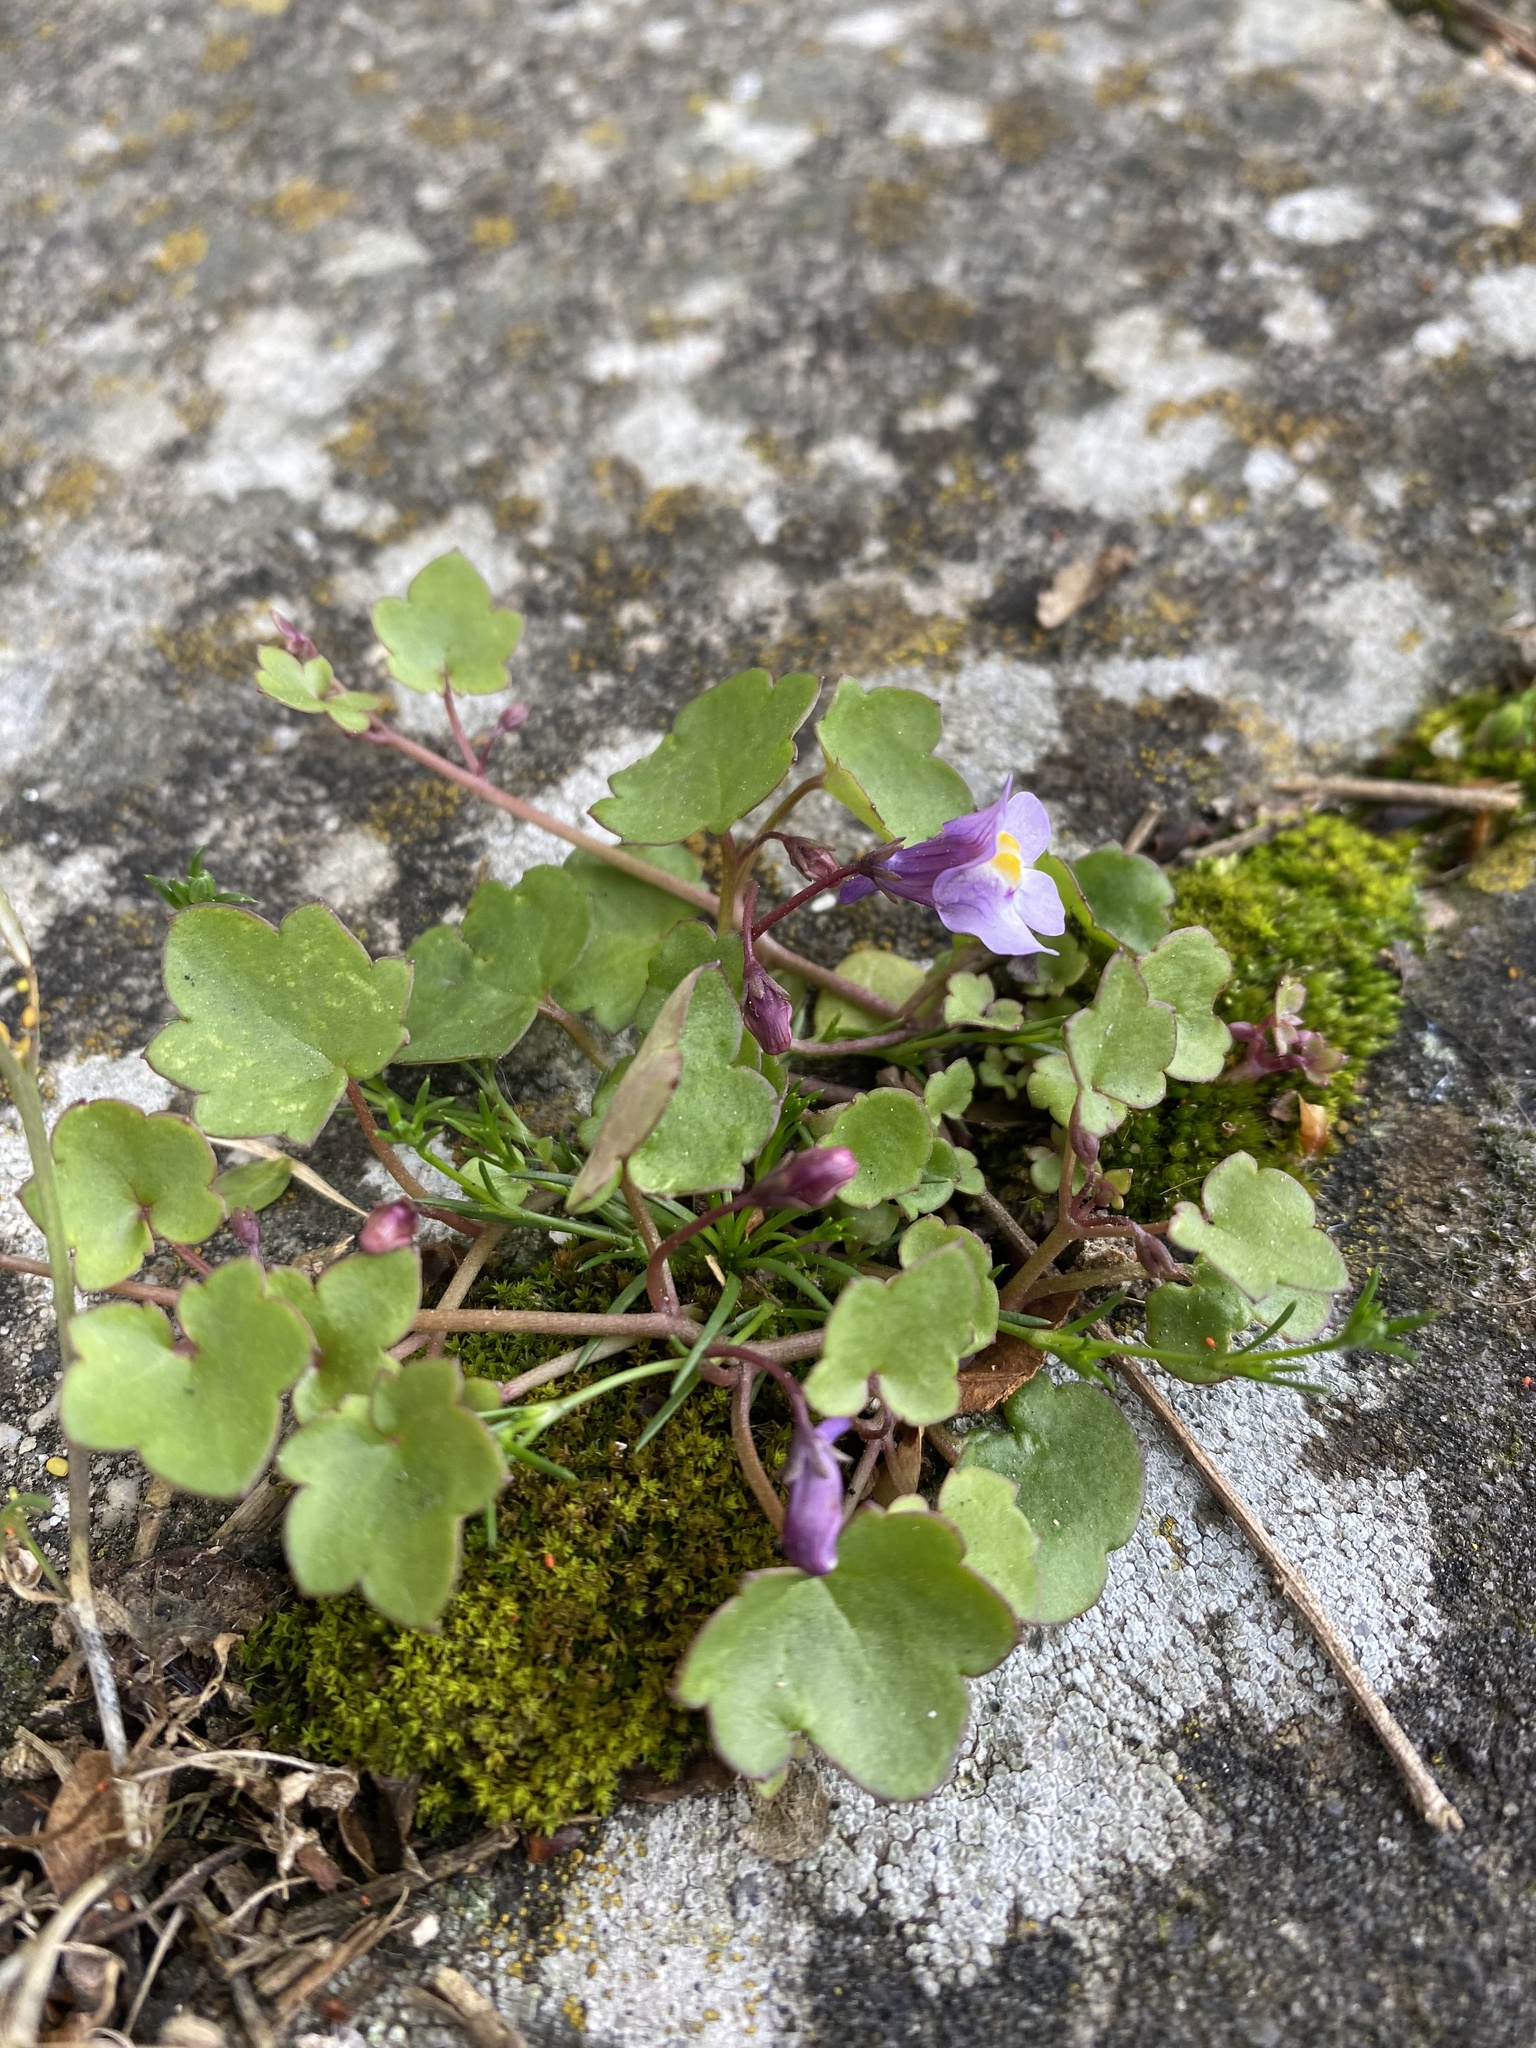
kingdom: Plantae
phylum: Tracheophyta
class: Magnoliopsida
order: Lamiales
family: Plantaginaceae
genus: Cymbalaria
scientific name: Cymbalaria muralis
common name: Ivy-leaved toadflax
